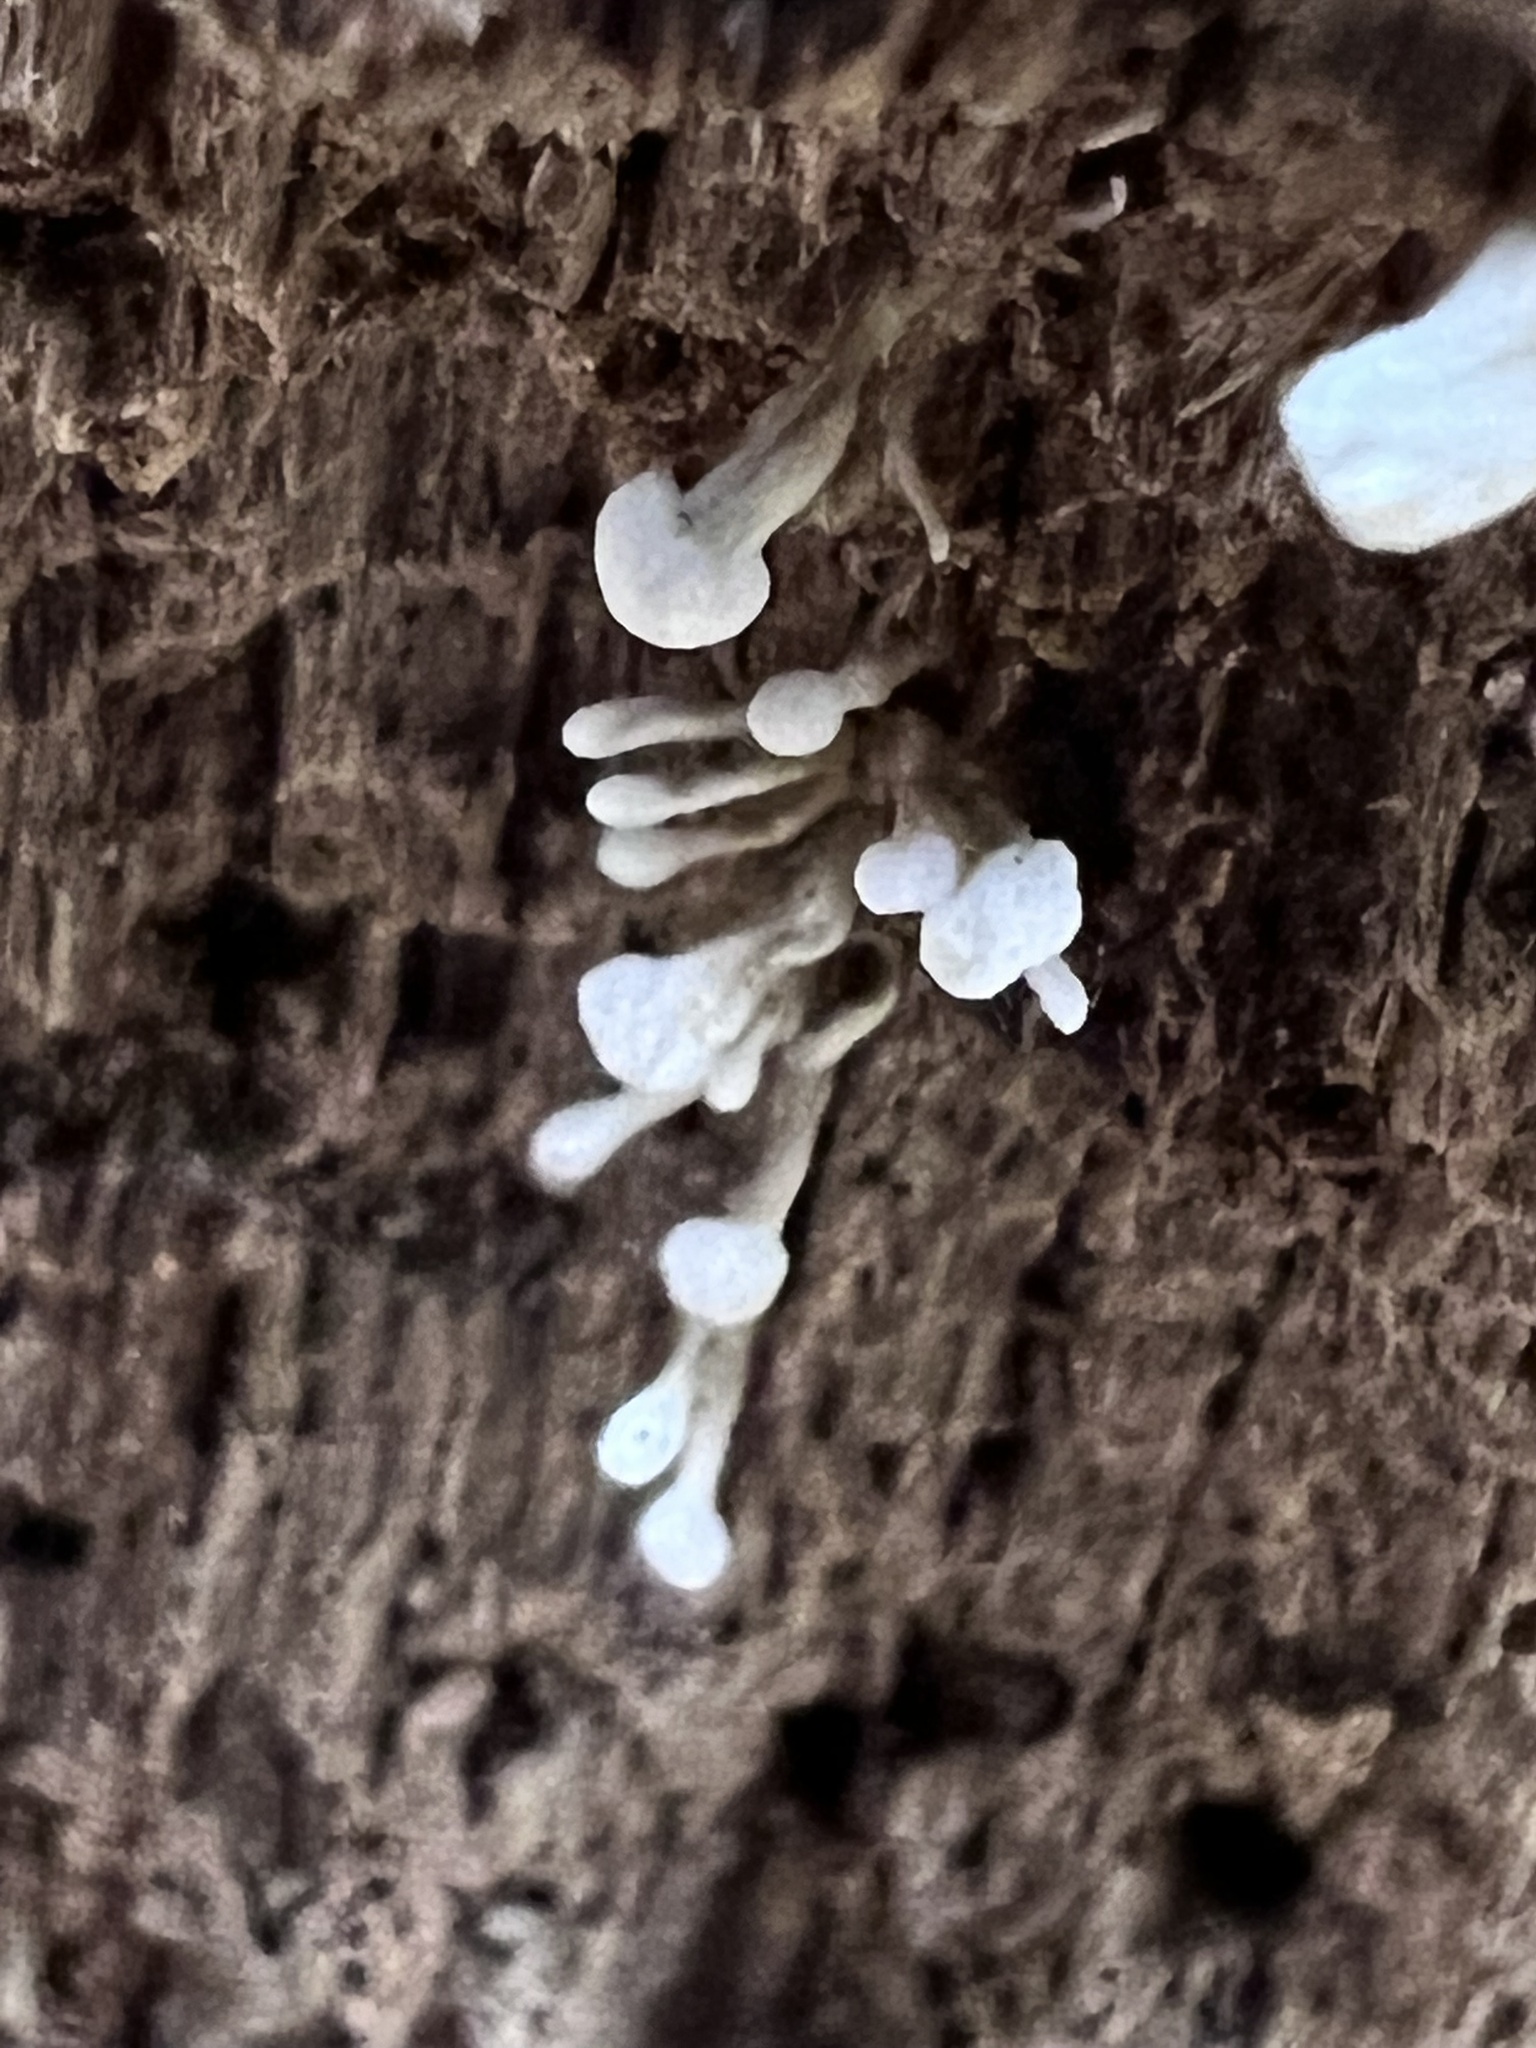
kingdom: Fungi
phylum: Basidiomycota
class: Atractiellomycetes
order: Atractiellales
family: Phleogenaceae
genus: Phleogena
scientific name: Phleogena faginea
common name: Fenugreek stalkball
